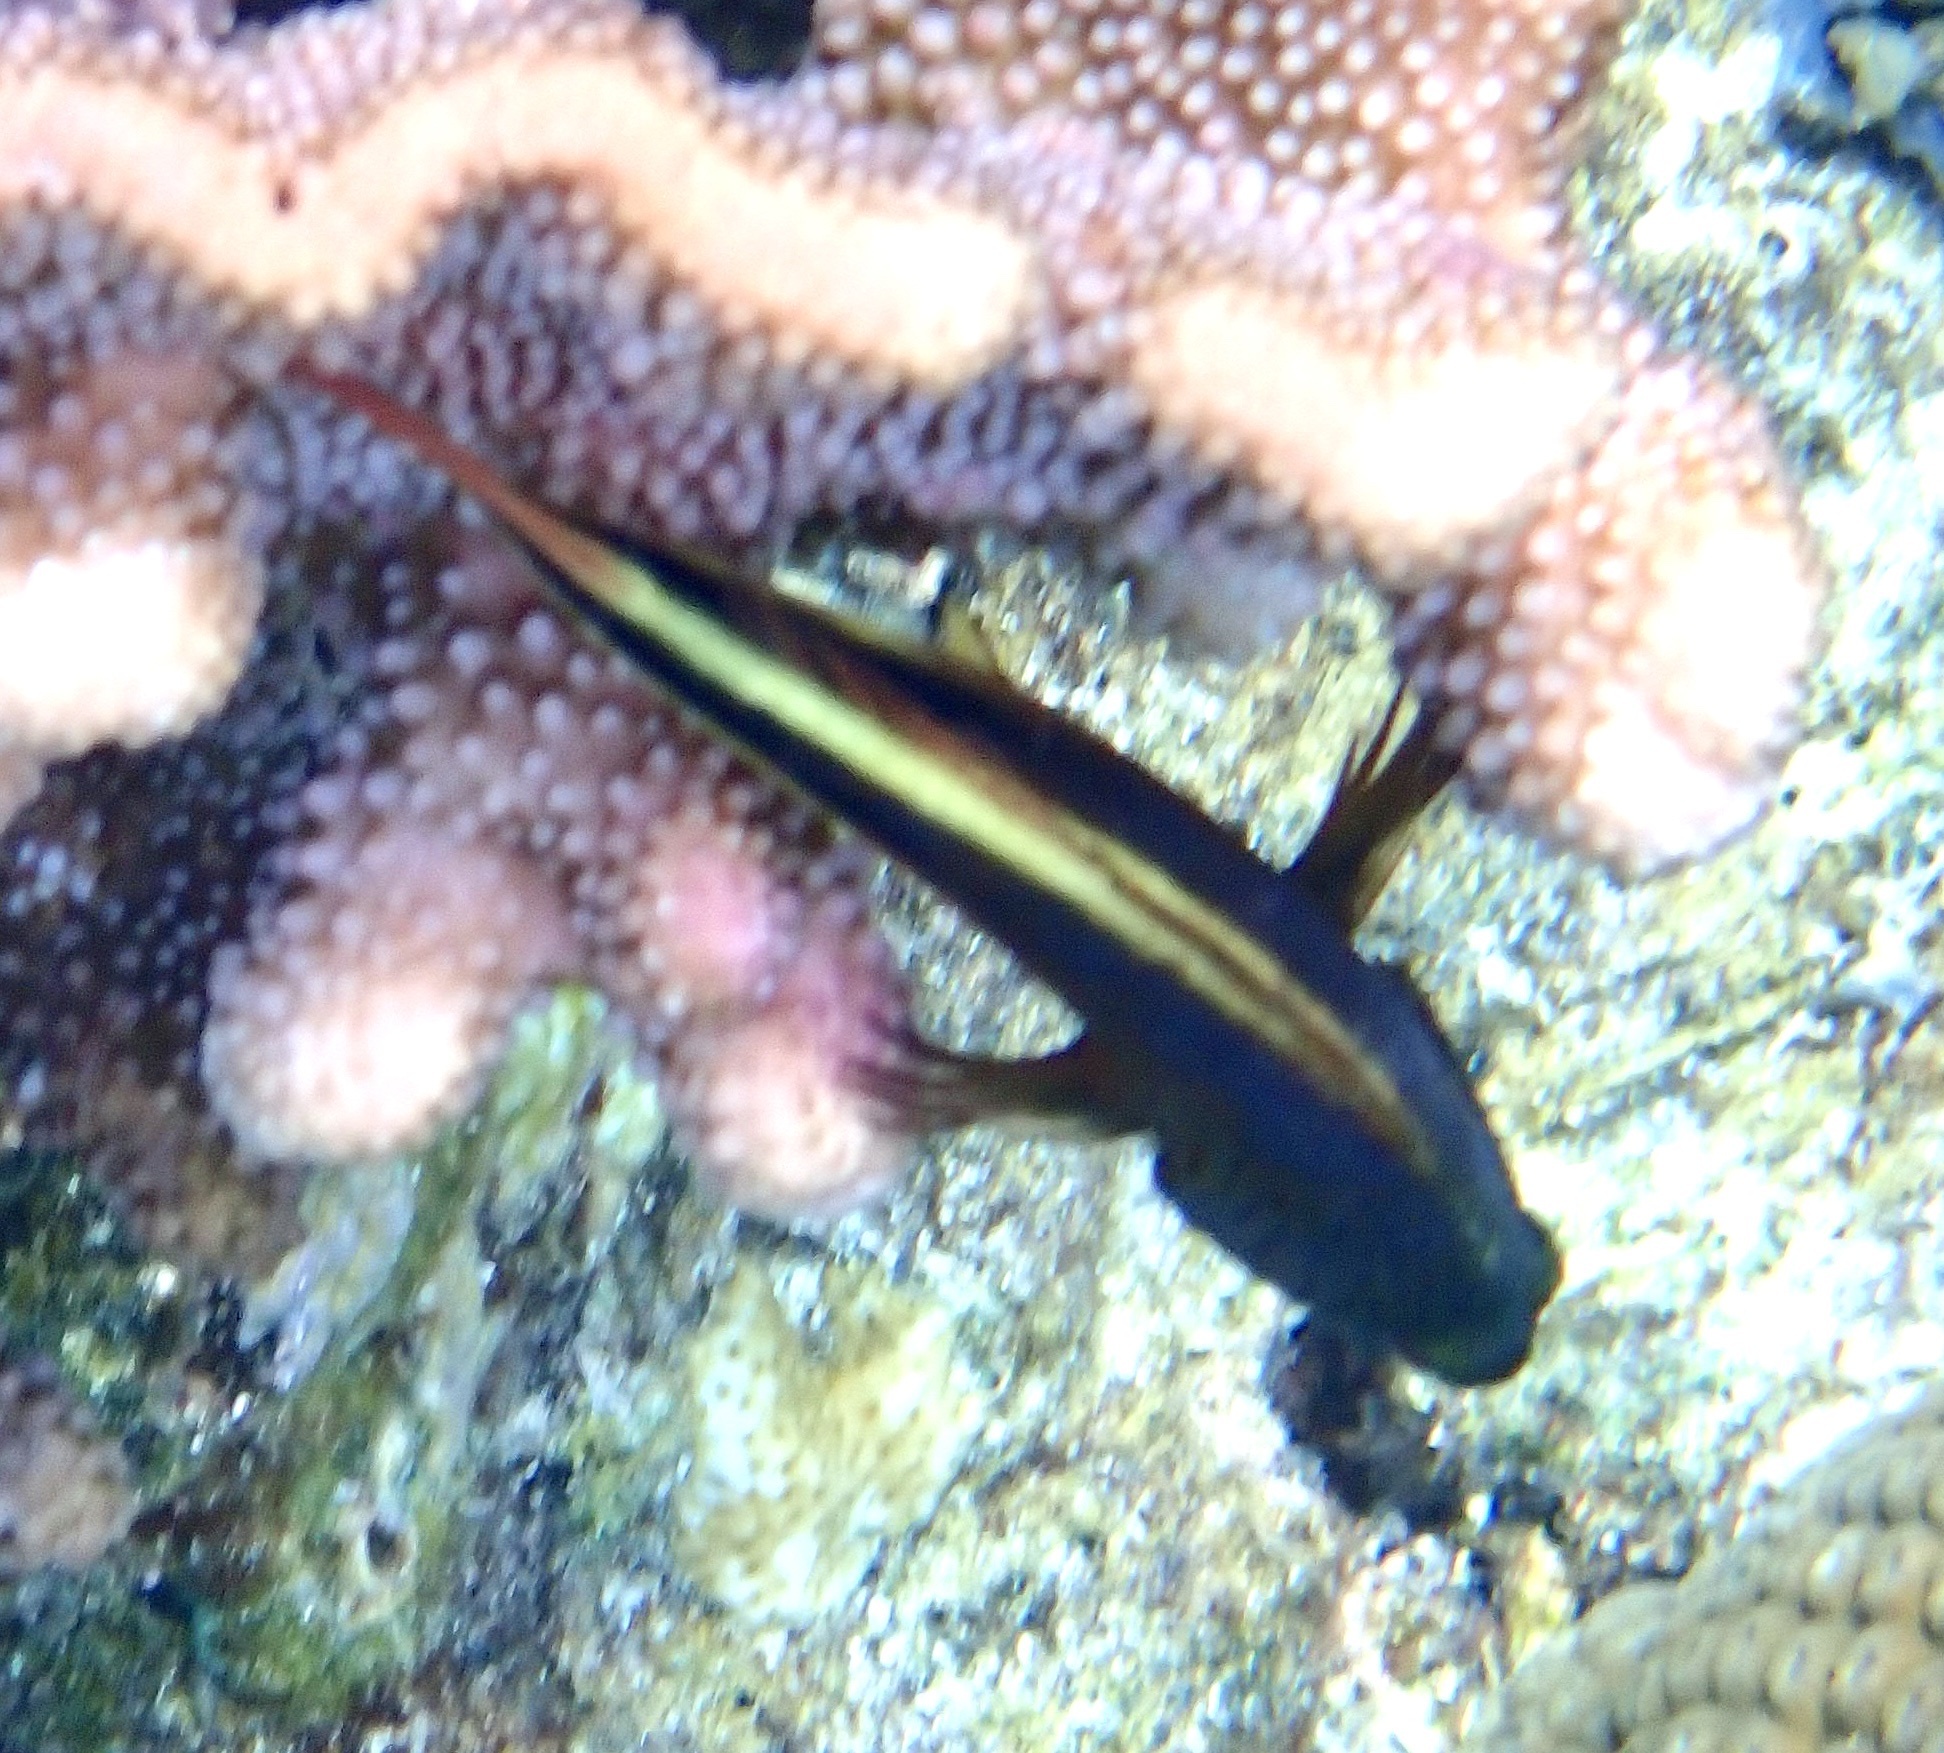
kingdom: Animalia
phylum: Chordata
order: Perciformes
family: Cirrhitidae
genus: Paracirrhites
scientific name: Paracirrhites forsteri
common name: Freckled hawkfish
